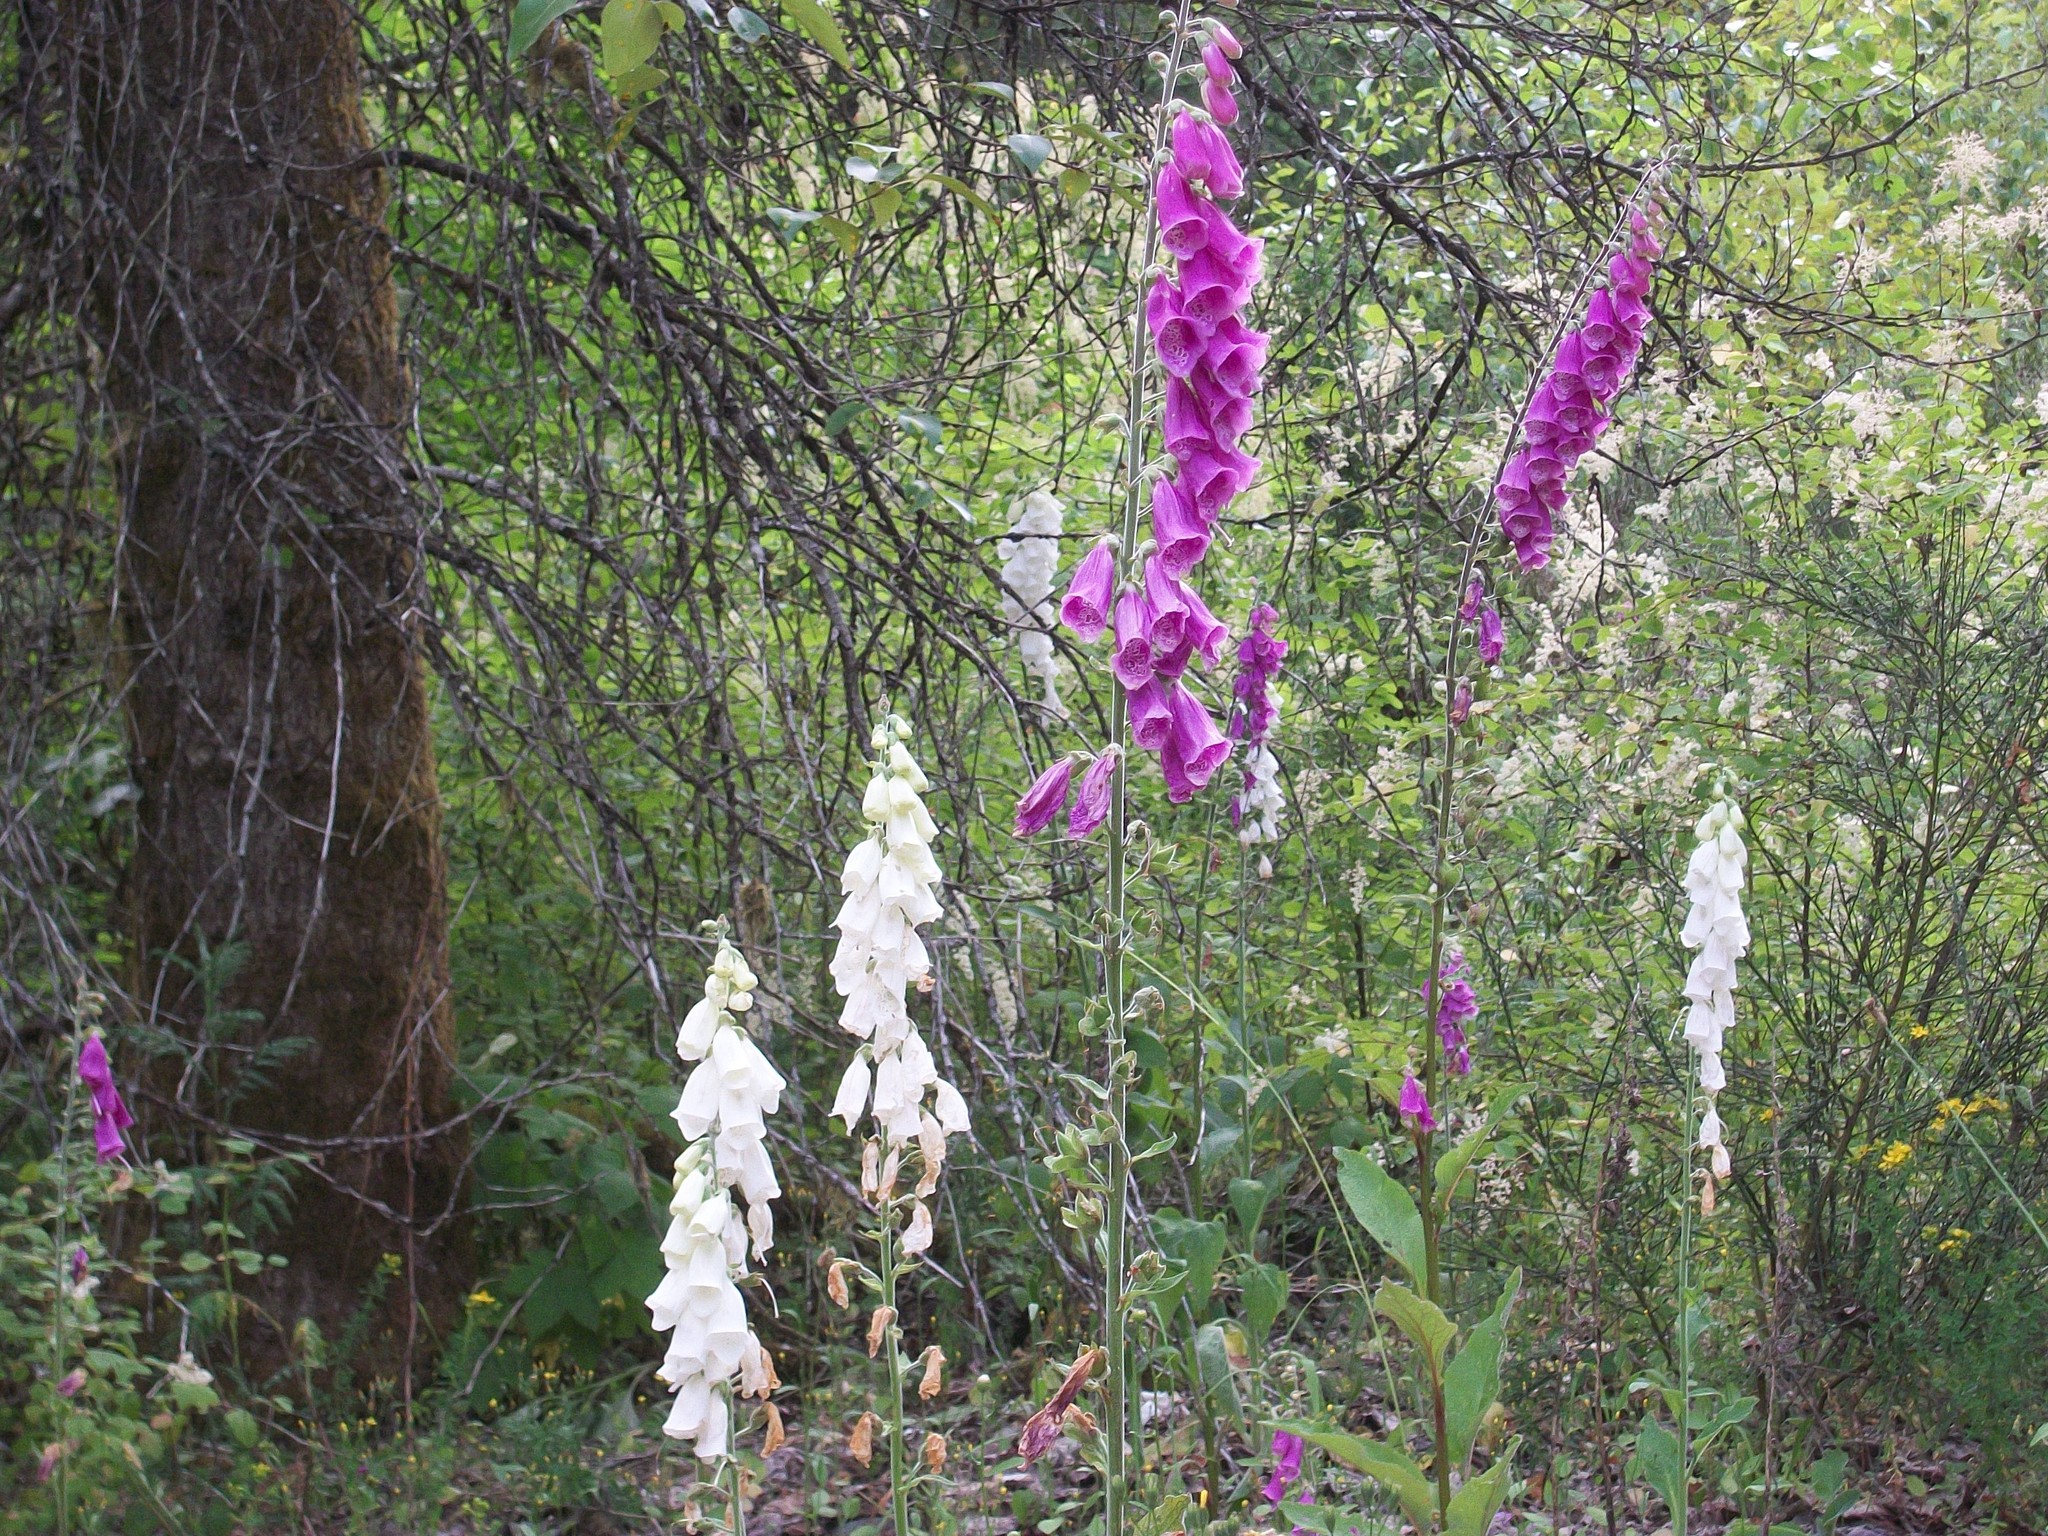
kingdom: Plantae
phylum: Tracheophyta
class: Magnoliopsida
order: Lamiales
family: Plantaginaceae
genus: Digitalis
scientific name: Digitalis purpurea
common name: Foxglove
